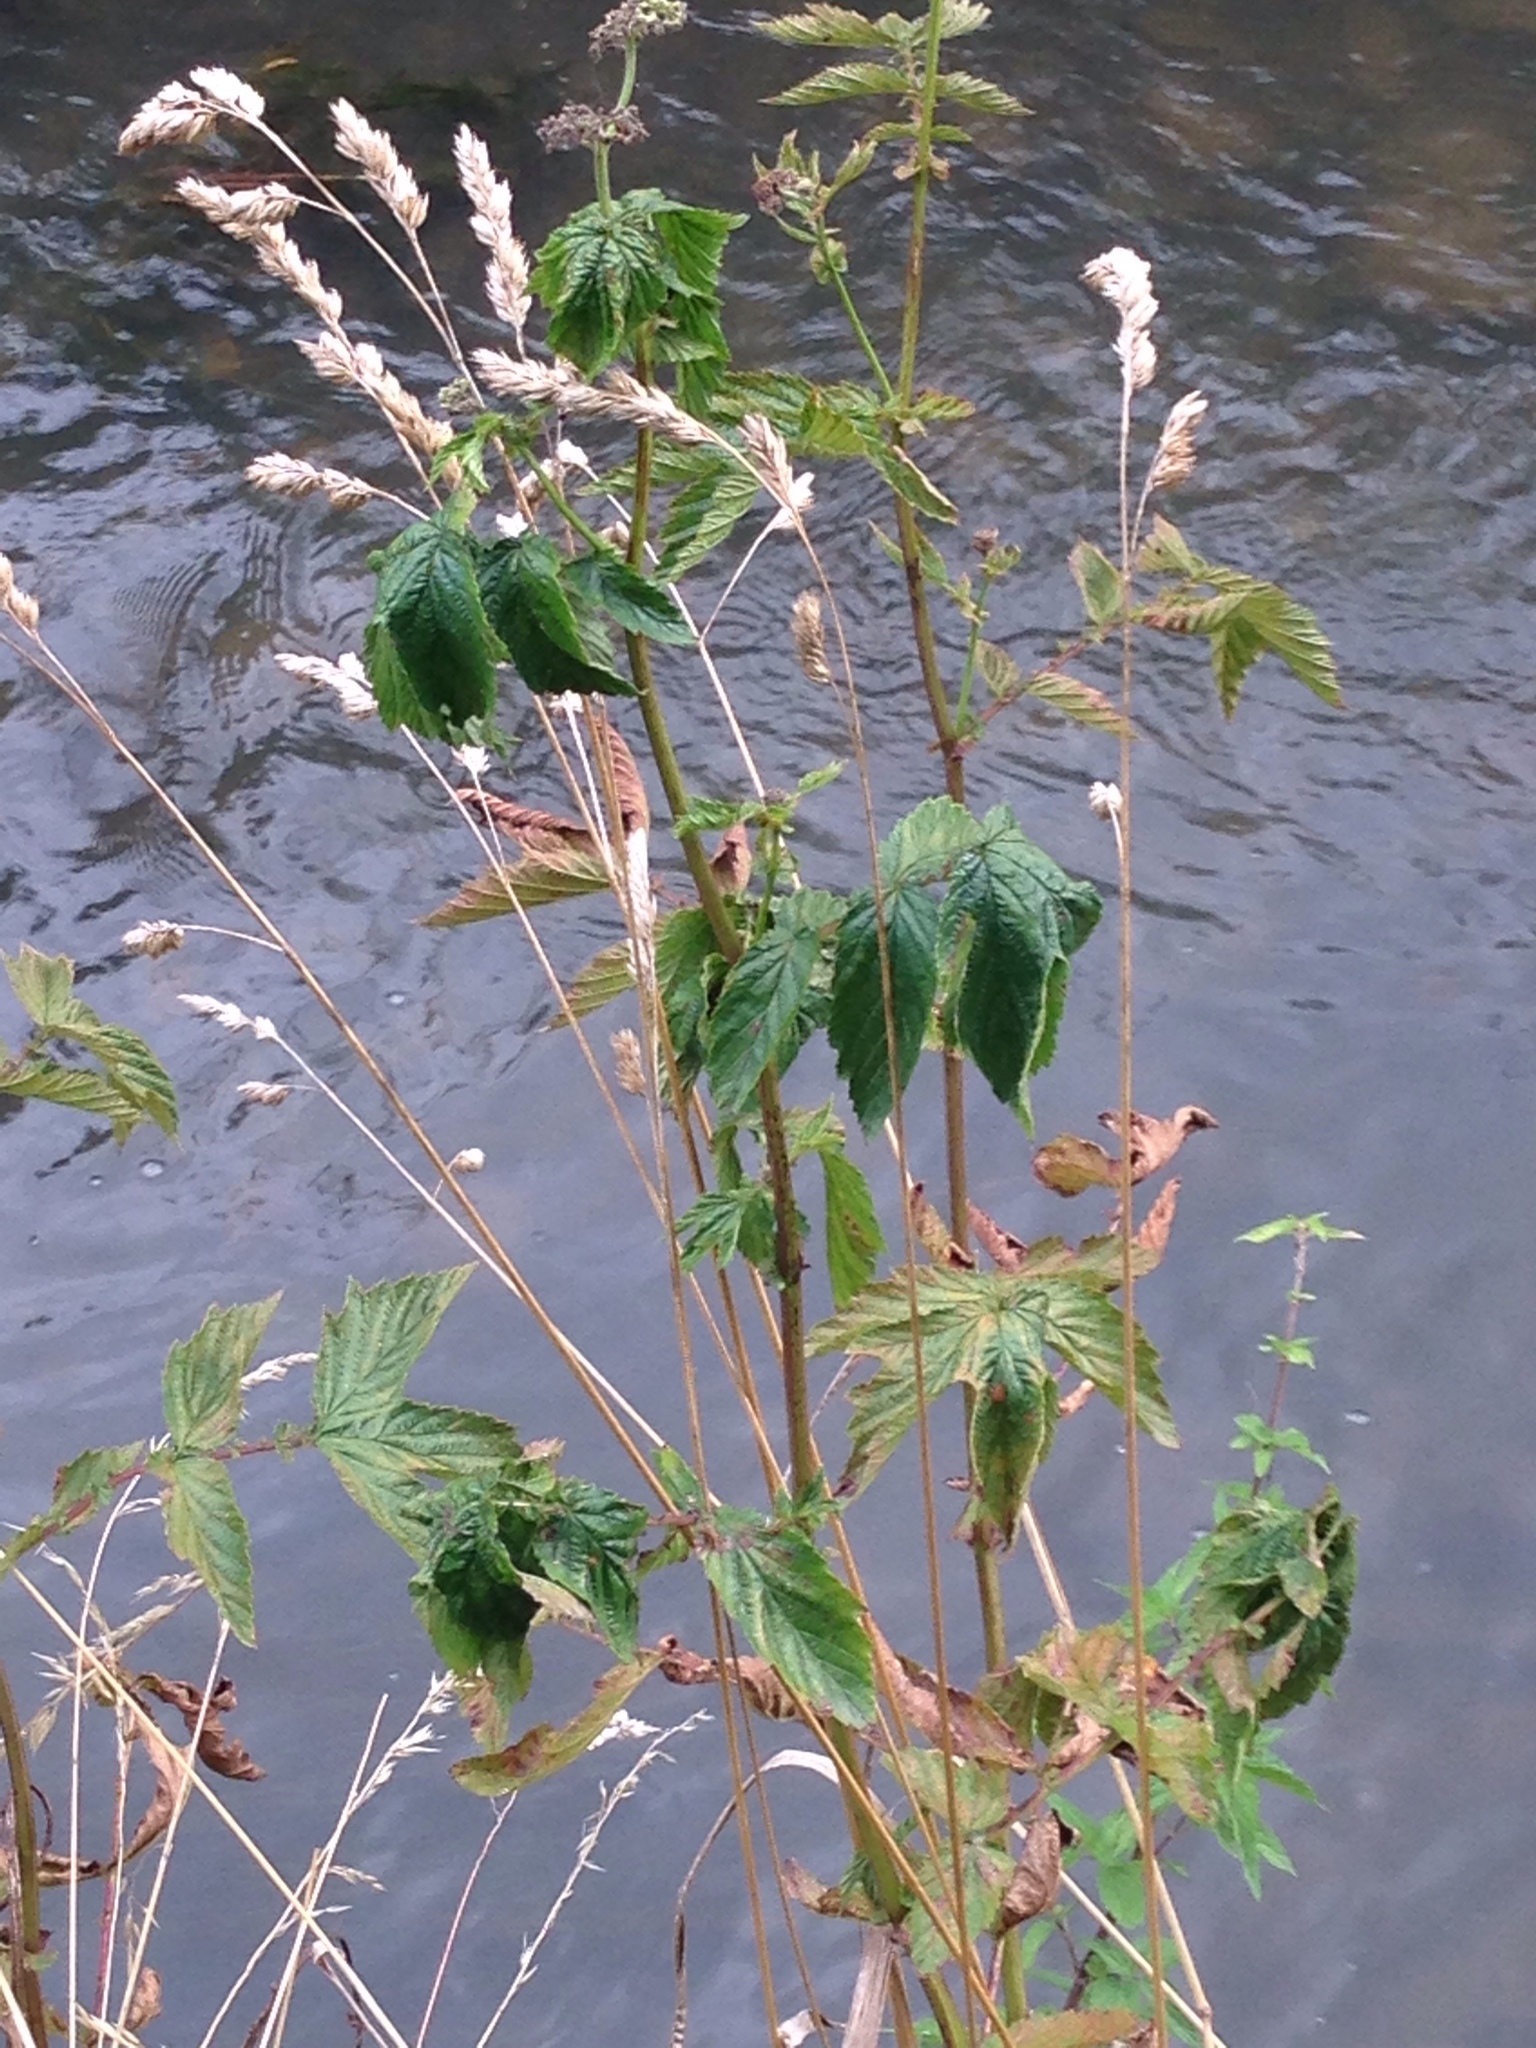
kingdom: Plantae
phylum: Tracheophyta
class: Magnoliopsida
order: Rosales
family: Rosaceae
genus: Filipendula
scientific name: Filipendula ulmaria
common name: Meadowsweet
